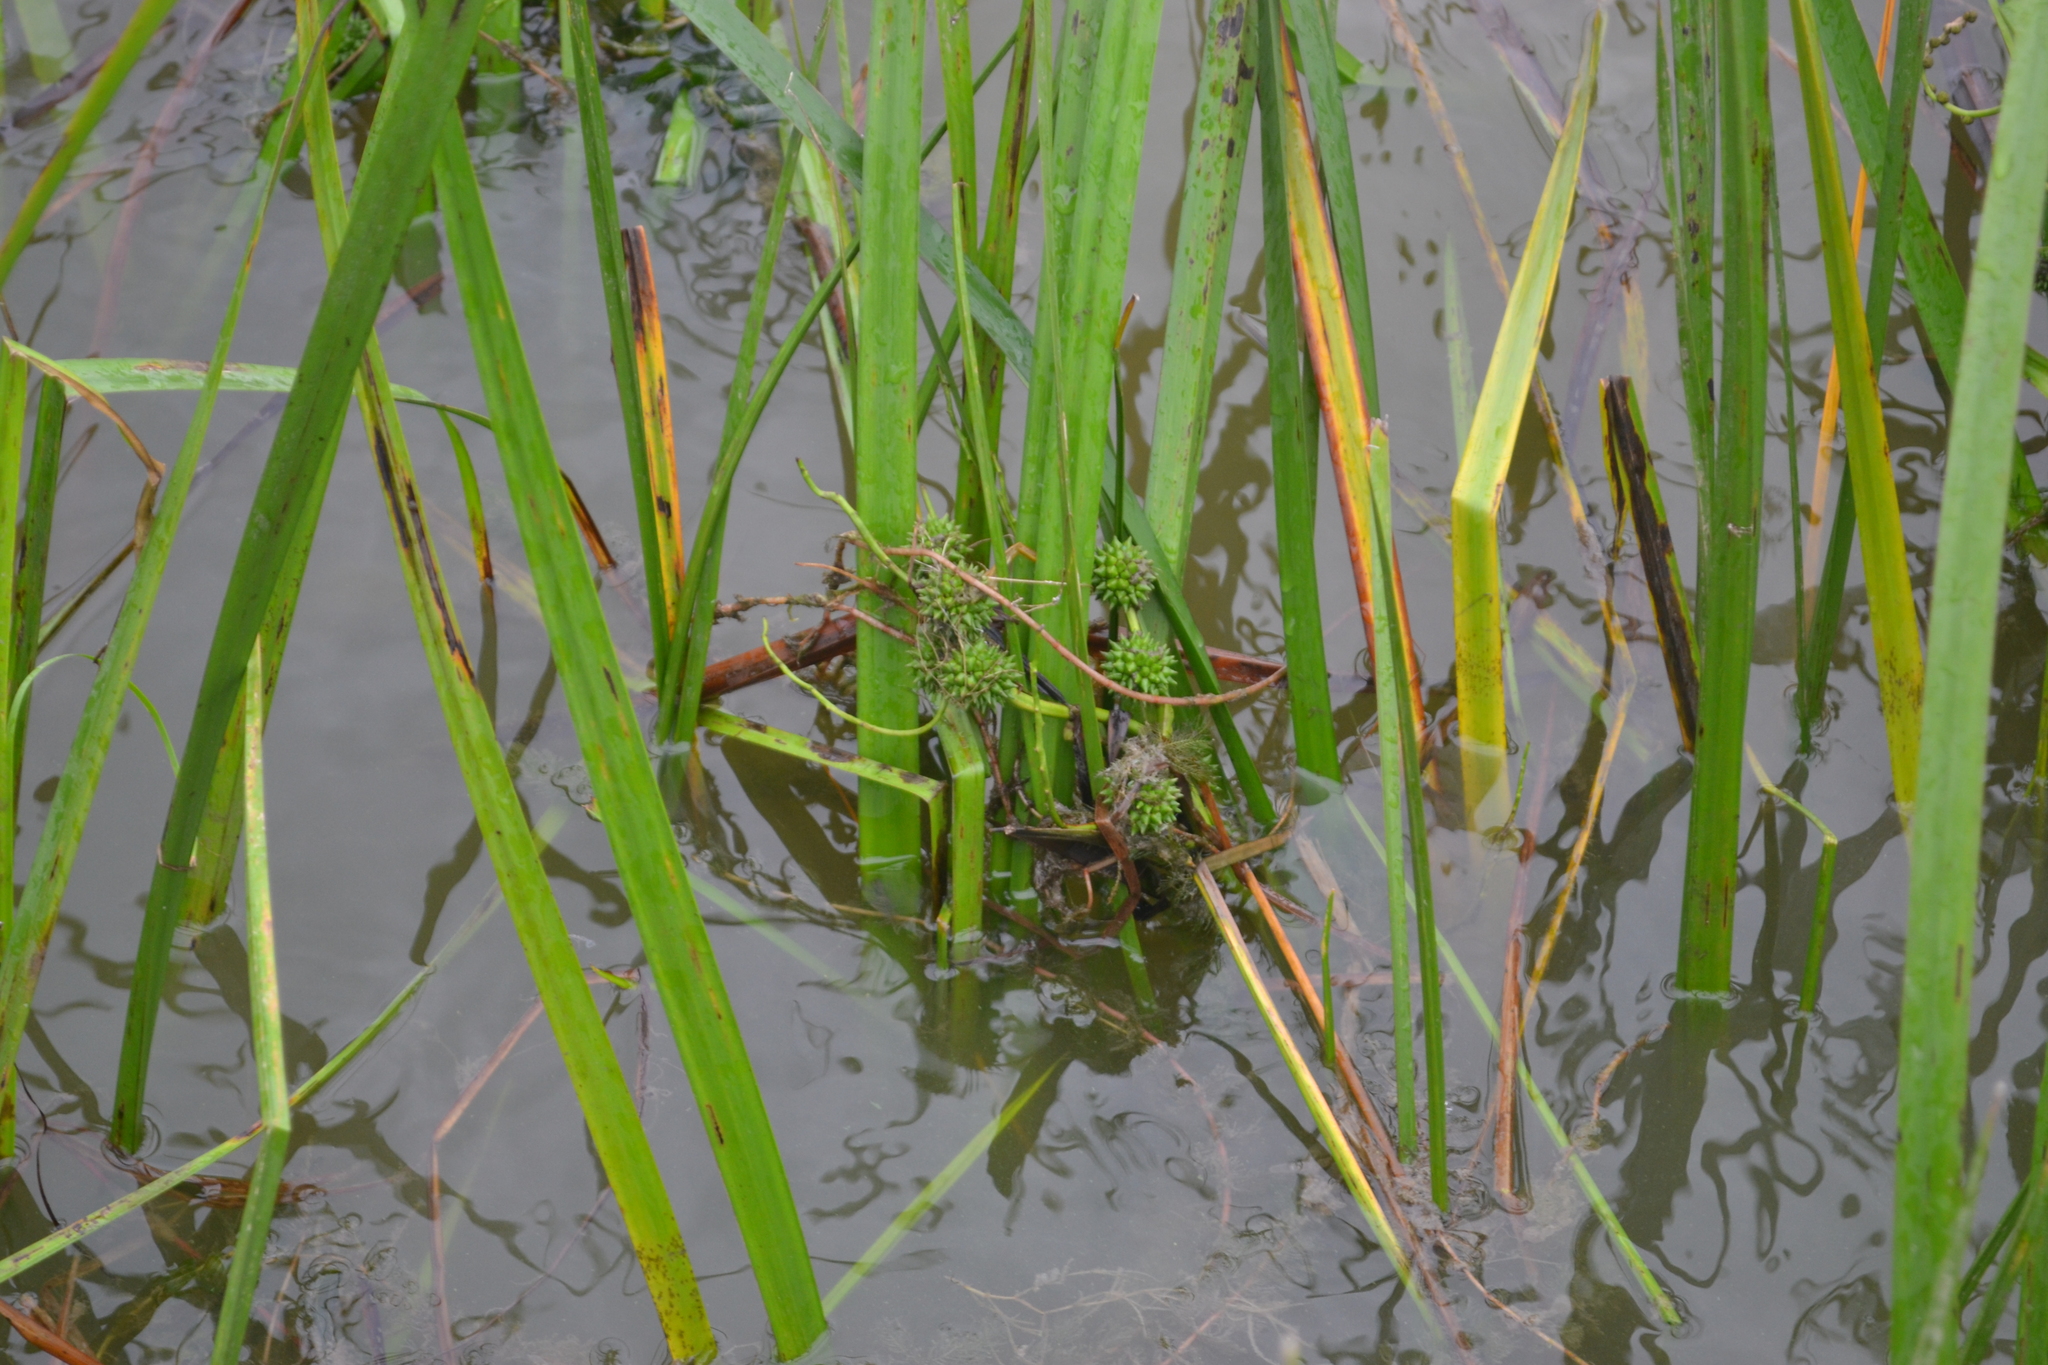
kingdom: Plantae
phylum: Tracheophyta
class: Liliopsida
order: Poales
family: Typhaceae
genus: Sparganium
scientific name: Sparganium erectum
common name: Branched bur-reed
